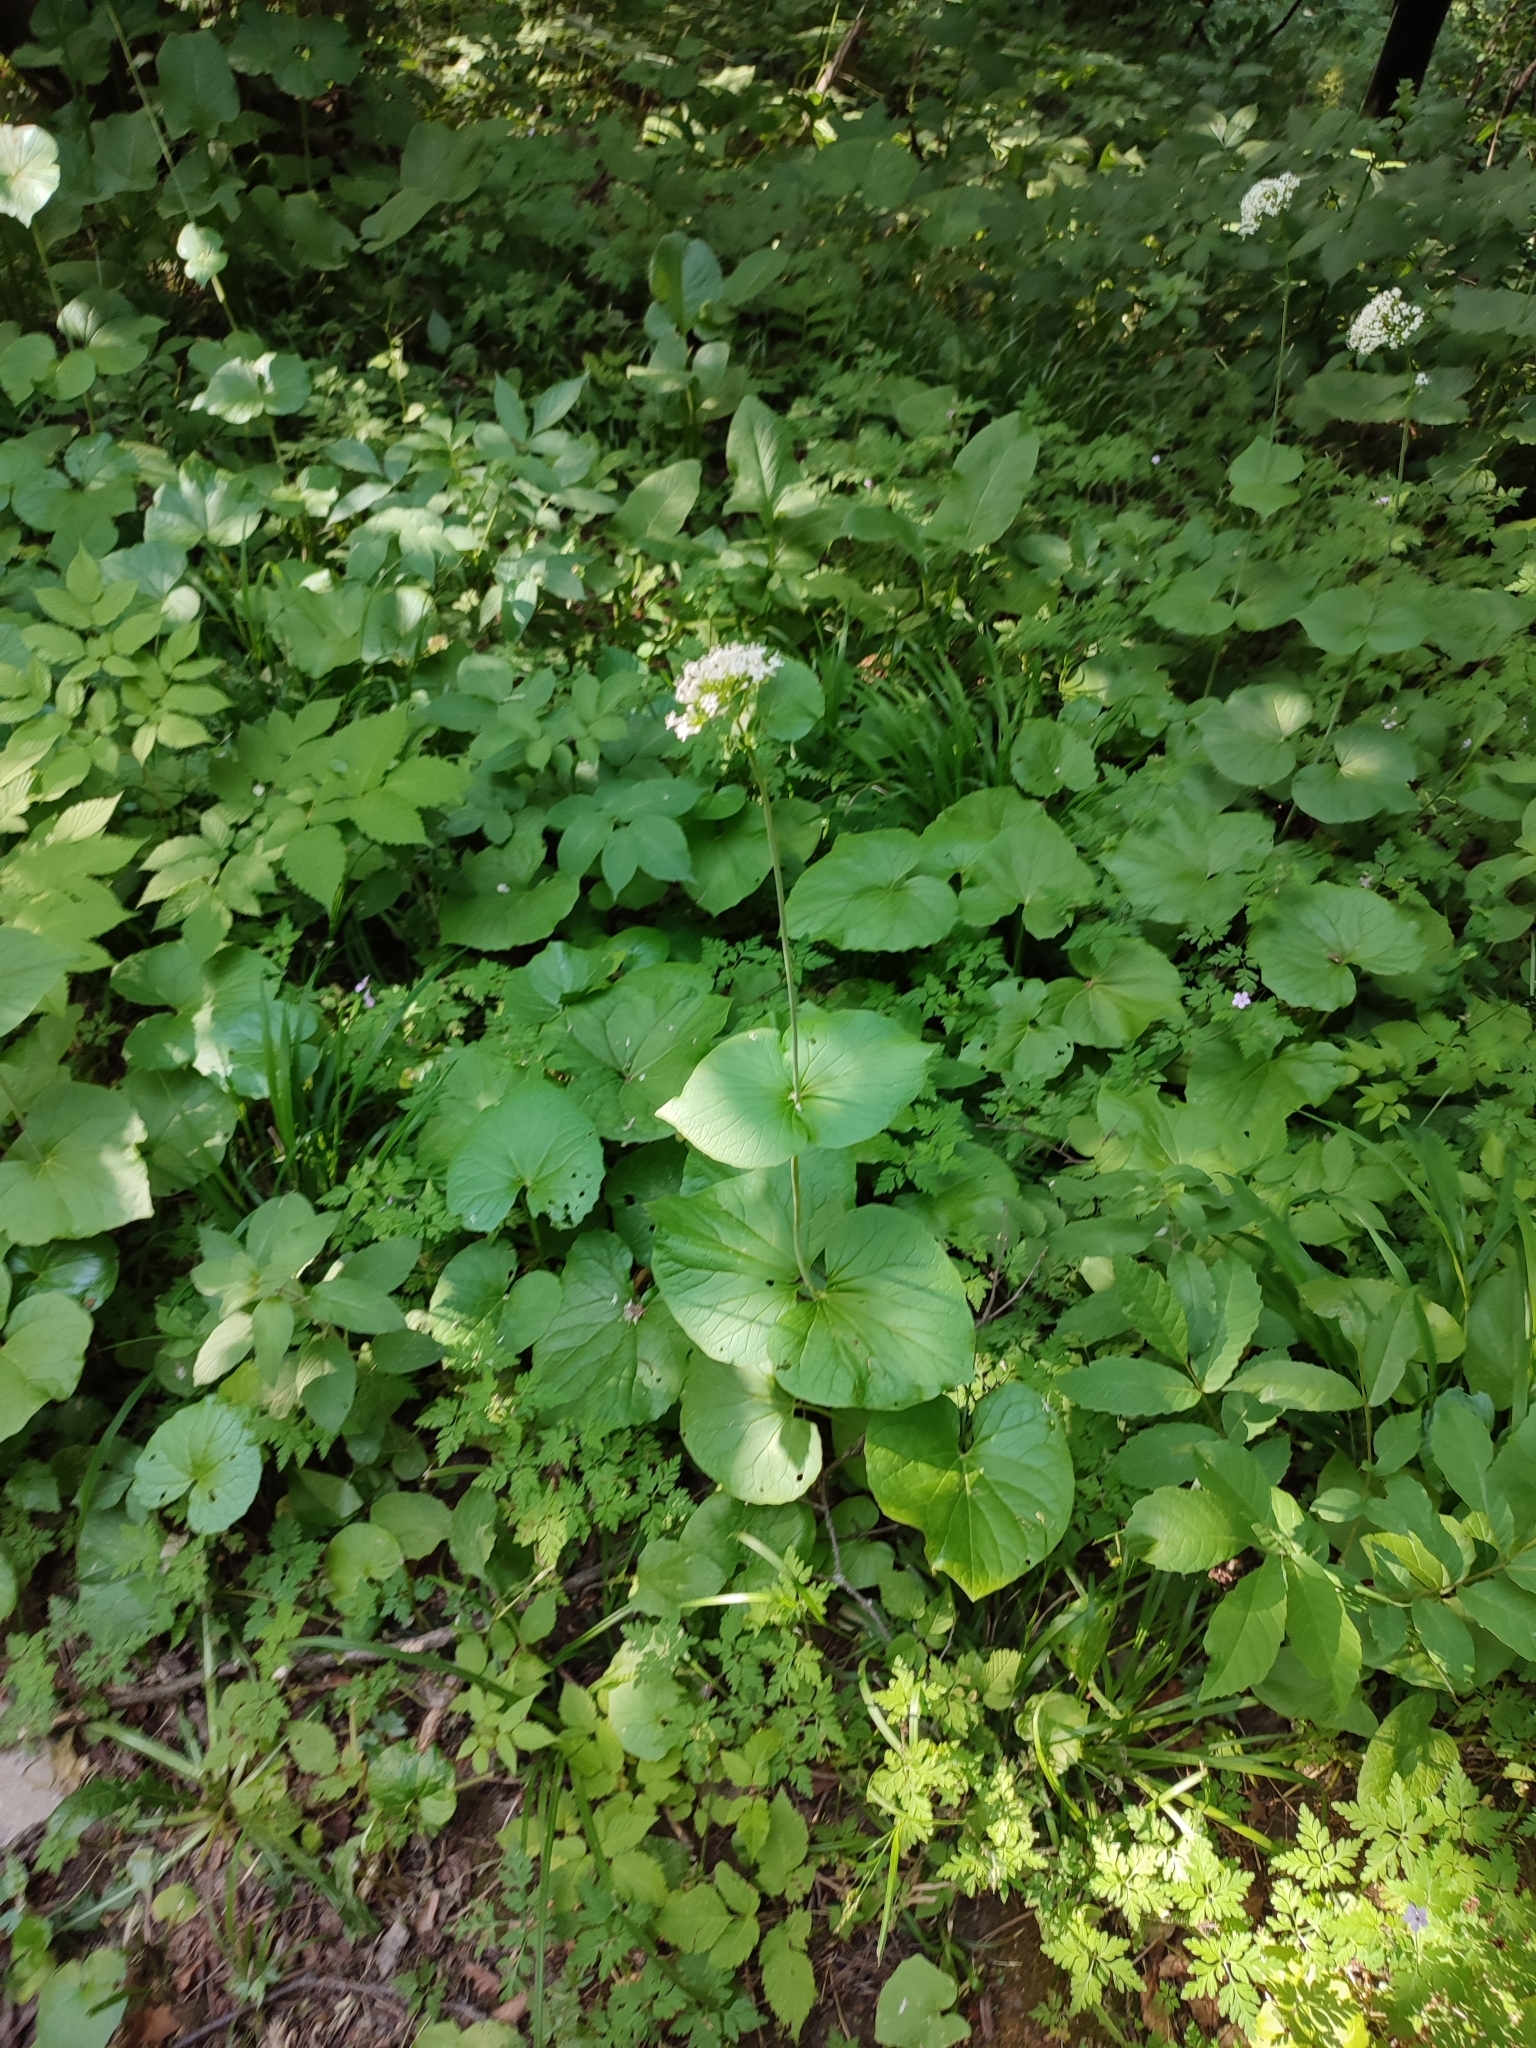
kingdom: Plantae
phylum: Tracheophyta
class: Magnoliopsida
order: Dipsacales
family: Caprifoliaceae
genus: Valeriana
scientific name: Valeriana alliariifolia
